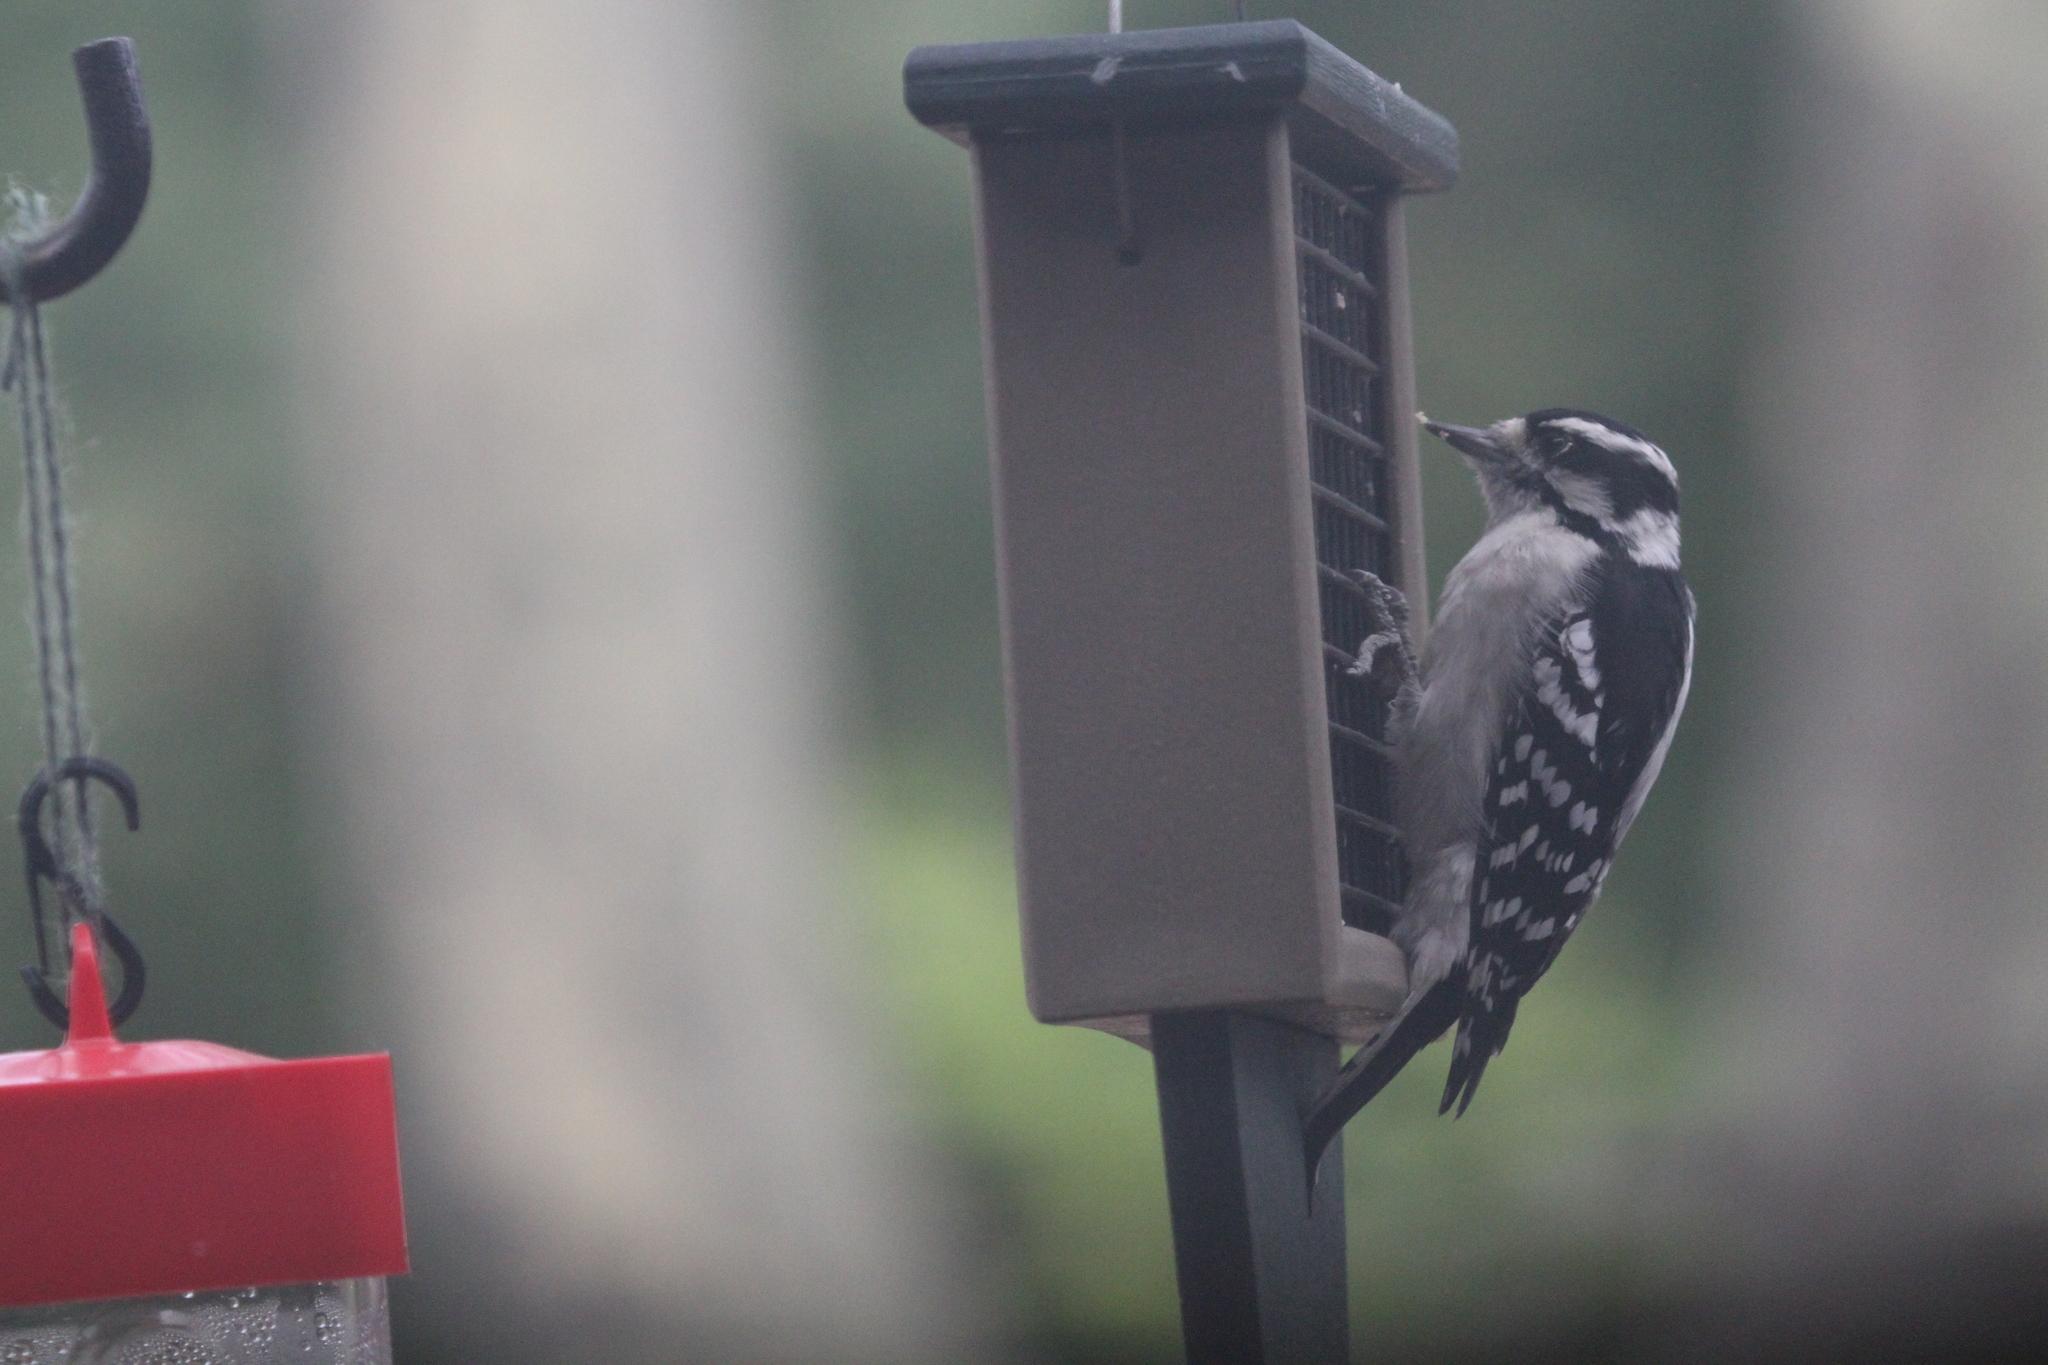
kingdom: Animalia
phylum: Chordata
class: Aves
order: Piciformes
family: Picidae
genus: Dryobates
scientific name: Dryobates pubescens
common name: Downy woodpecker
